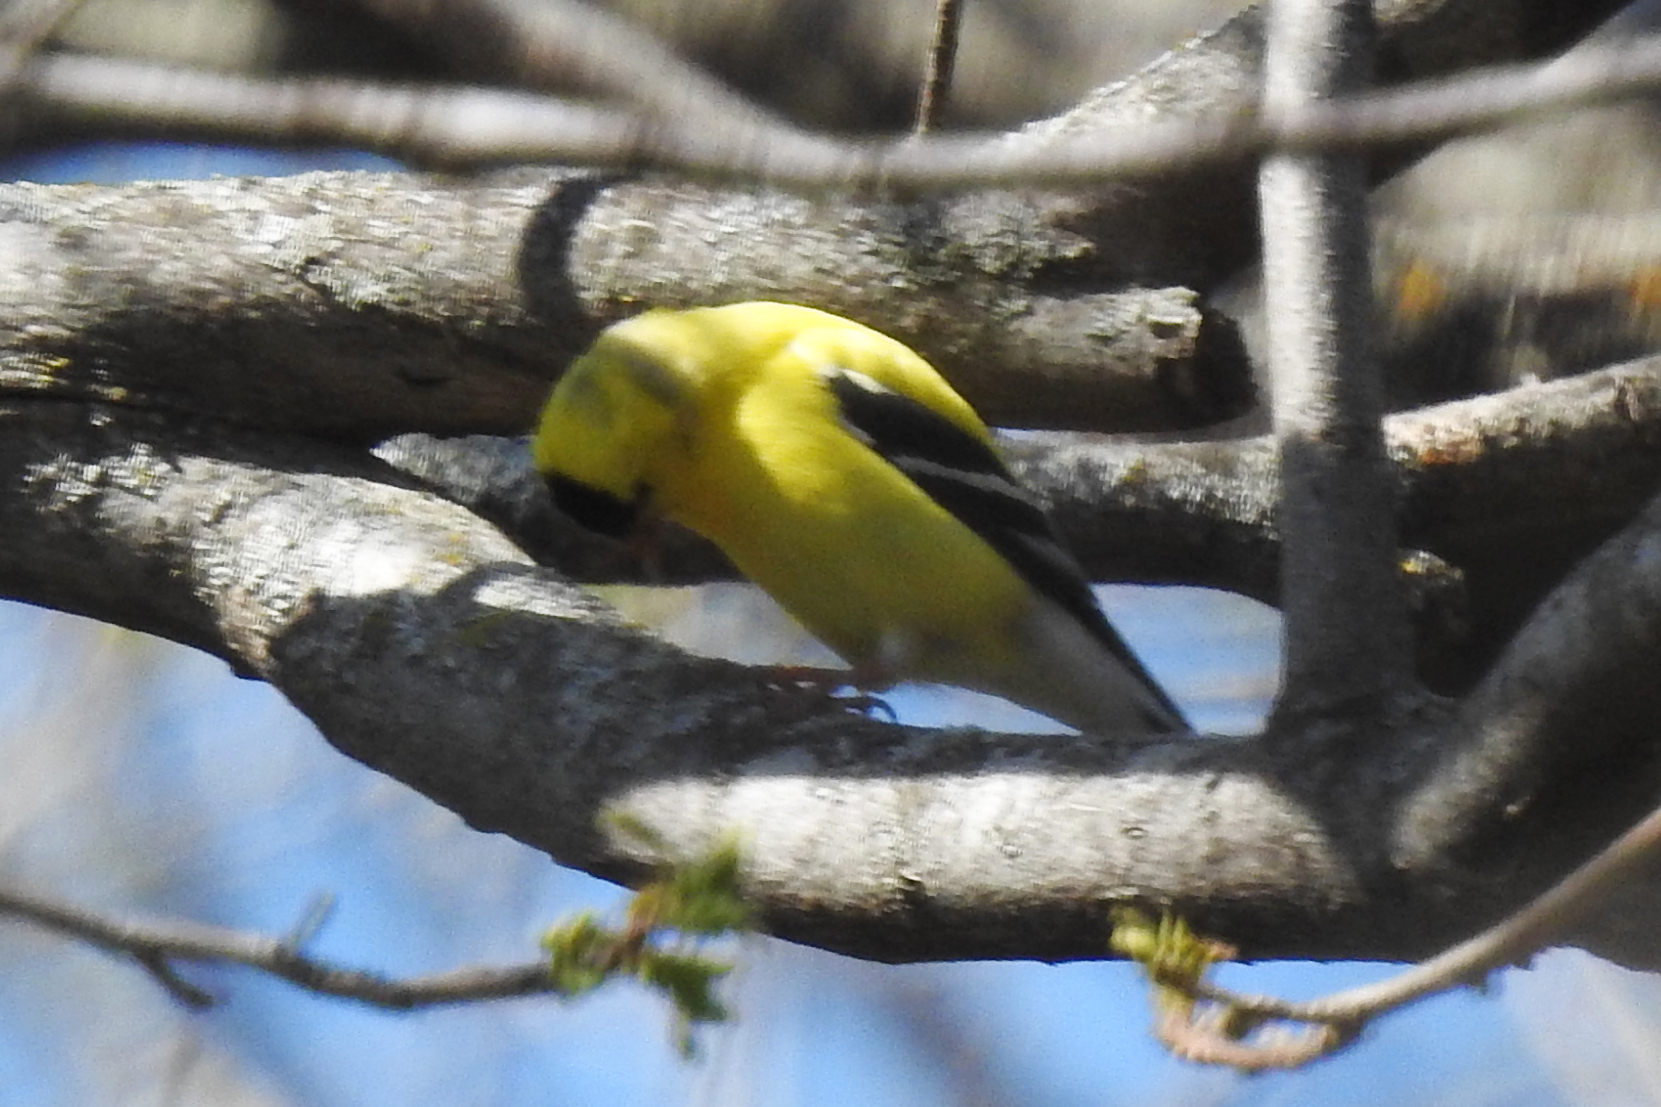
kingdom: Animalia
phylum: Chordata
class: Aves
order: Passeriformes
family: Fringillidae
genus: Spinus
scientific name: Spinus tristis
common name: American goldfinch
